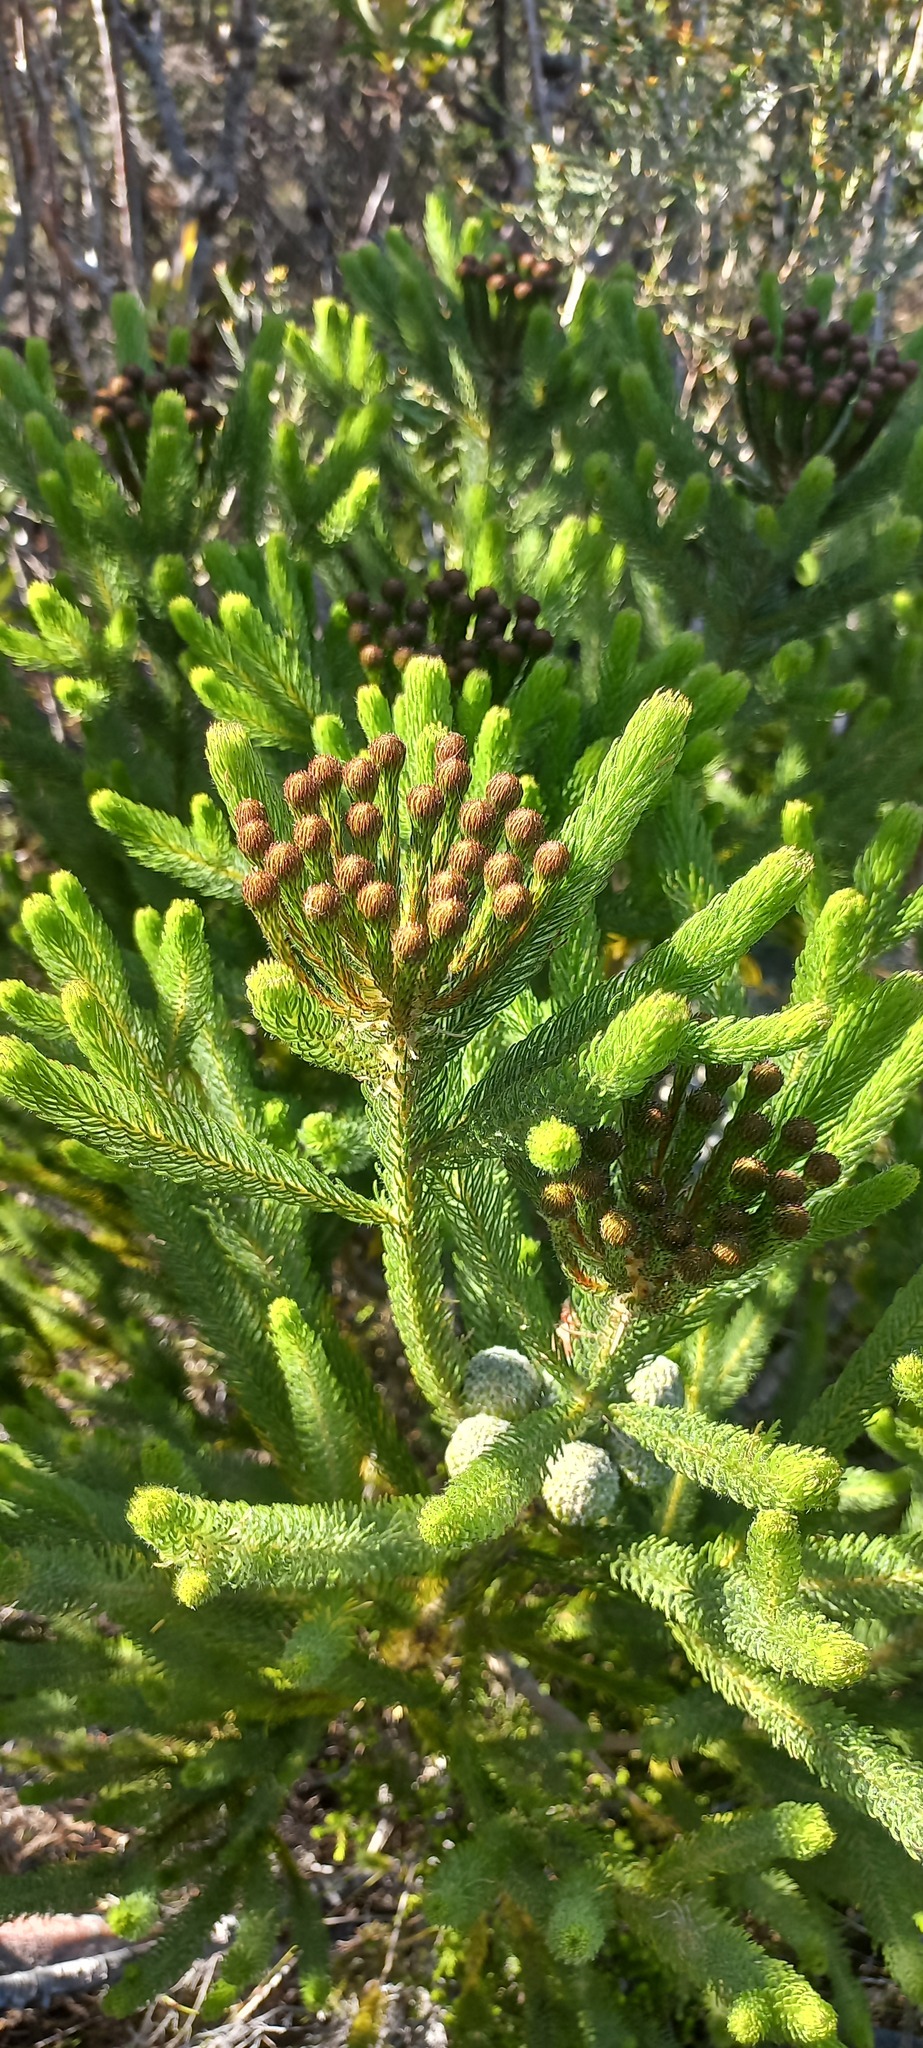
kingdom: Plantae
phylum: Tracheophyta
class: Magnoliopsida
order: Bruniales
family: Bruniaceae
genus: Berzelia
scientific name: Berzelia albiflora
